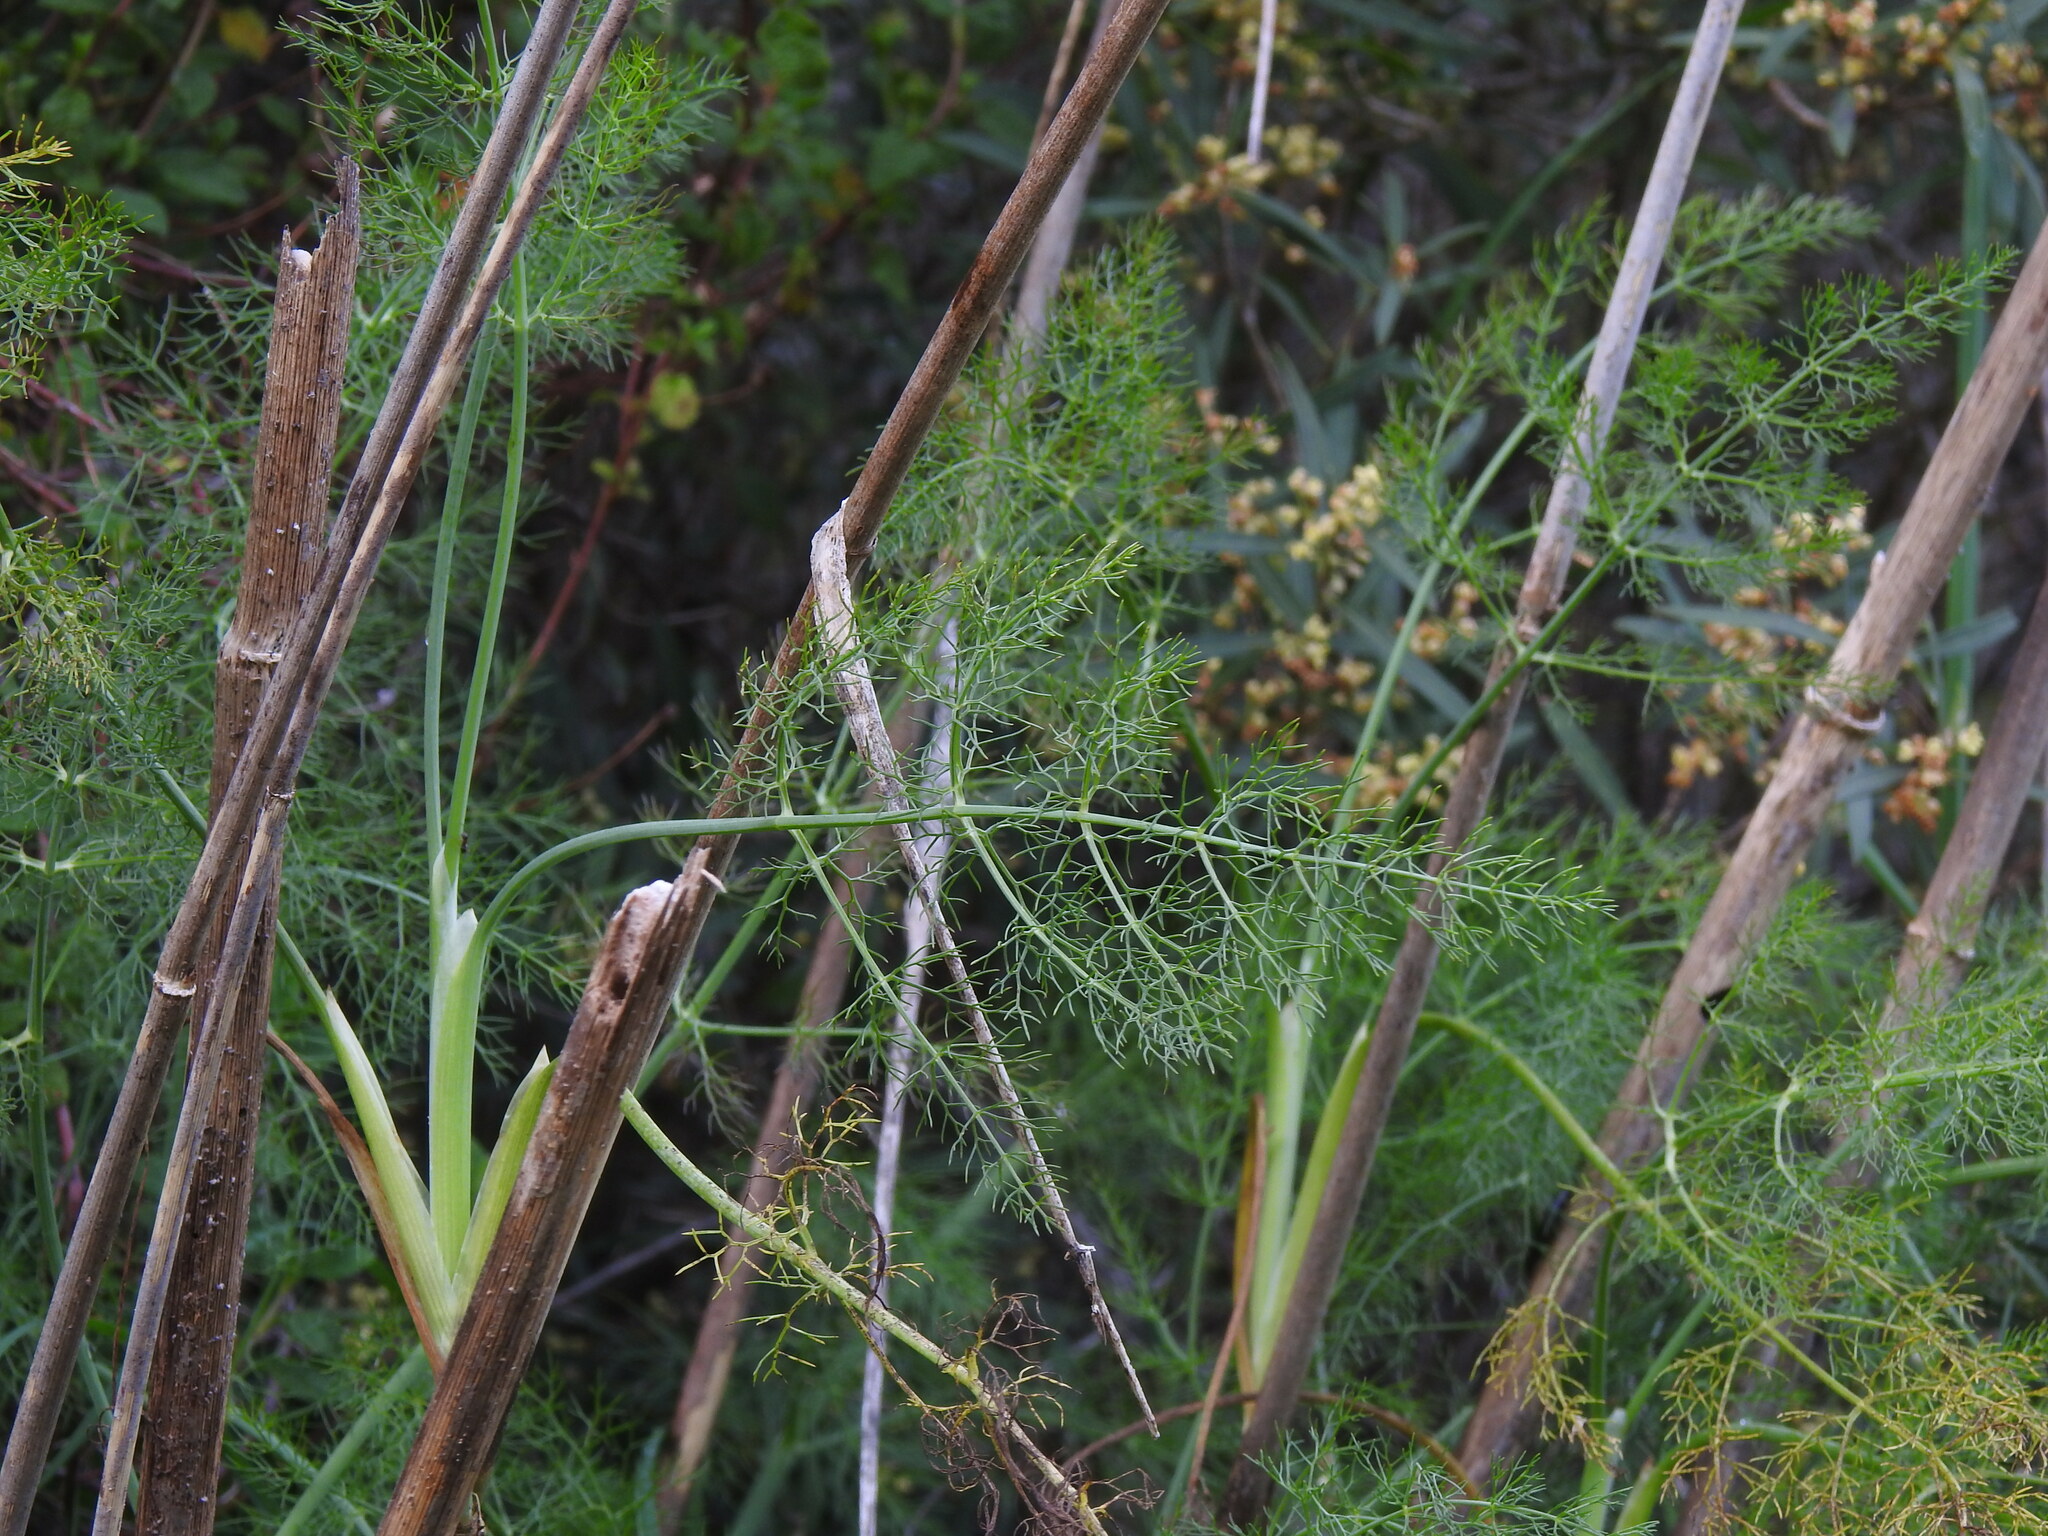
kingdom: Plantae
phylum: Tracheophyta
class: Magnoliopsida
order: Apiales
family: Apiaceae
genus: Foeniculum
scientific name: Foeniculum vulgare
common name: Fennel
